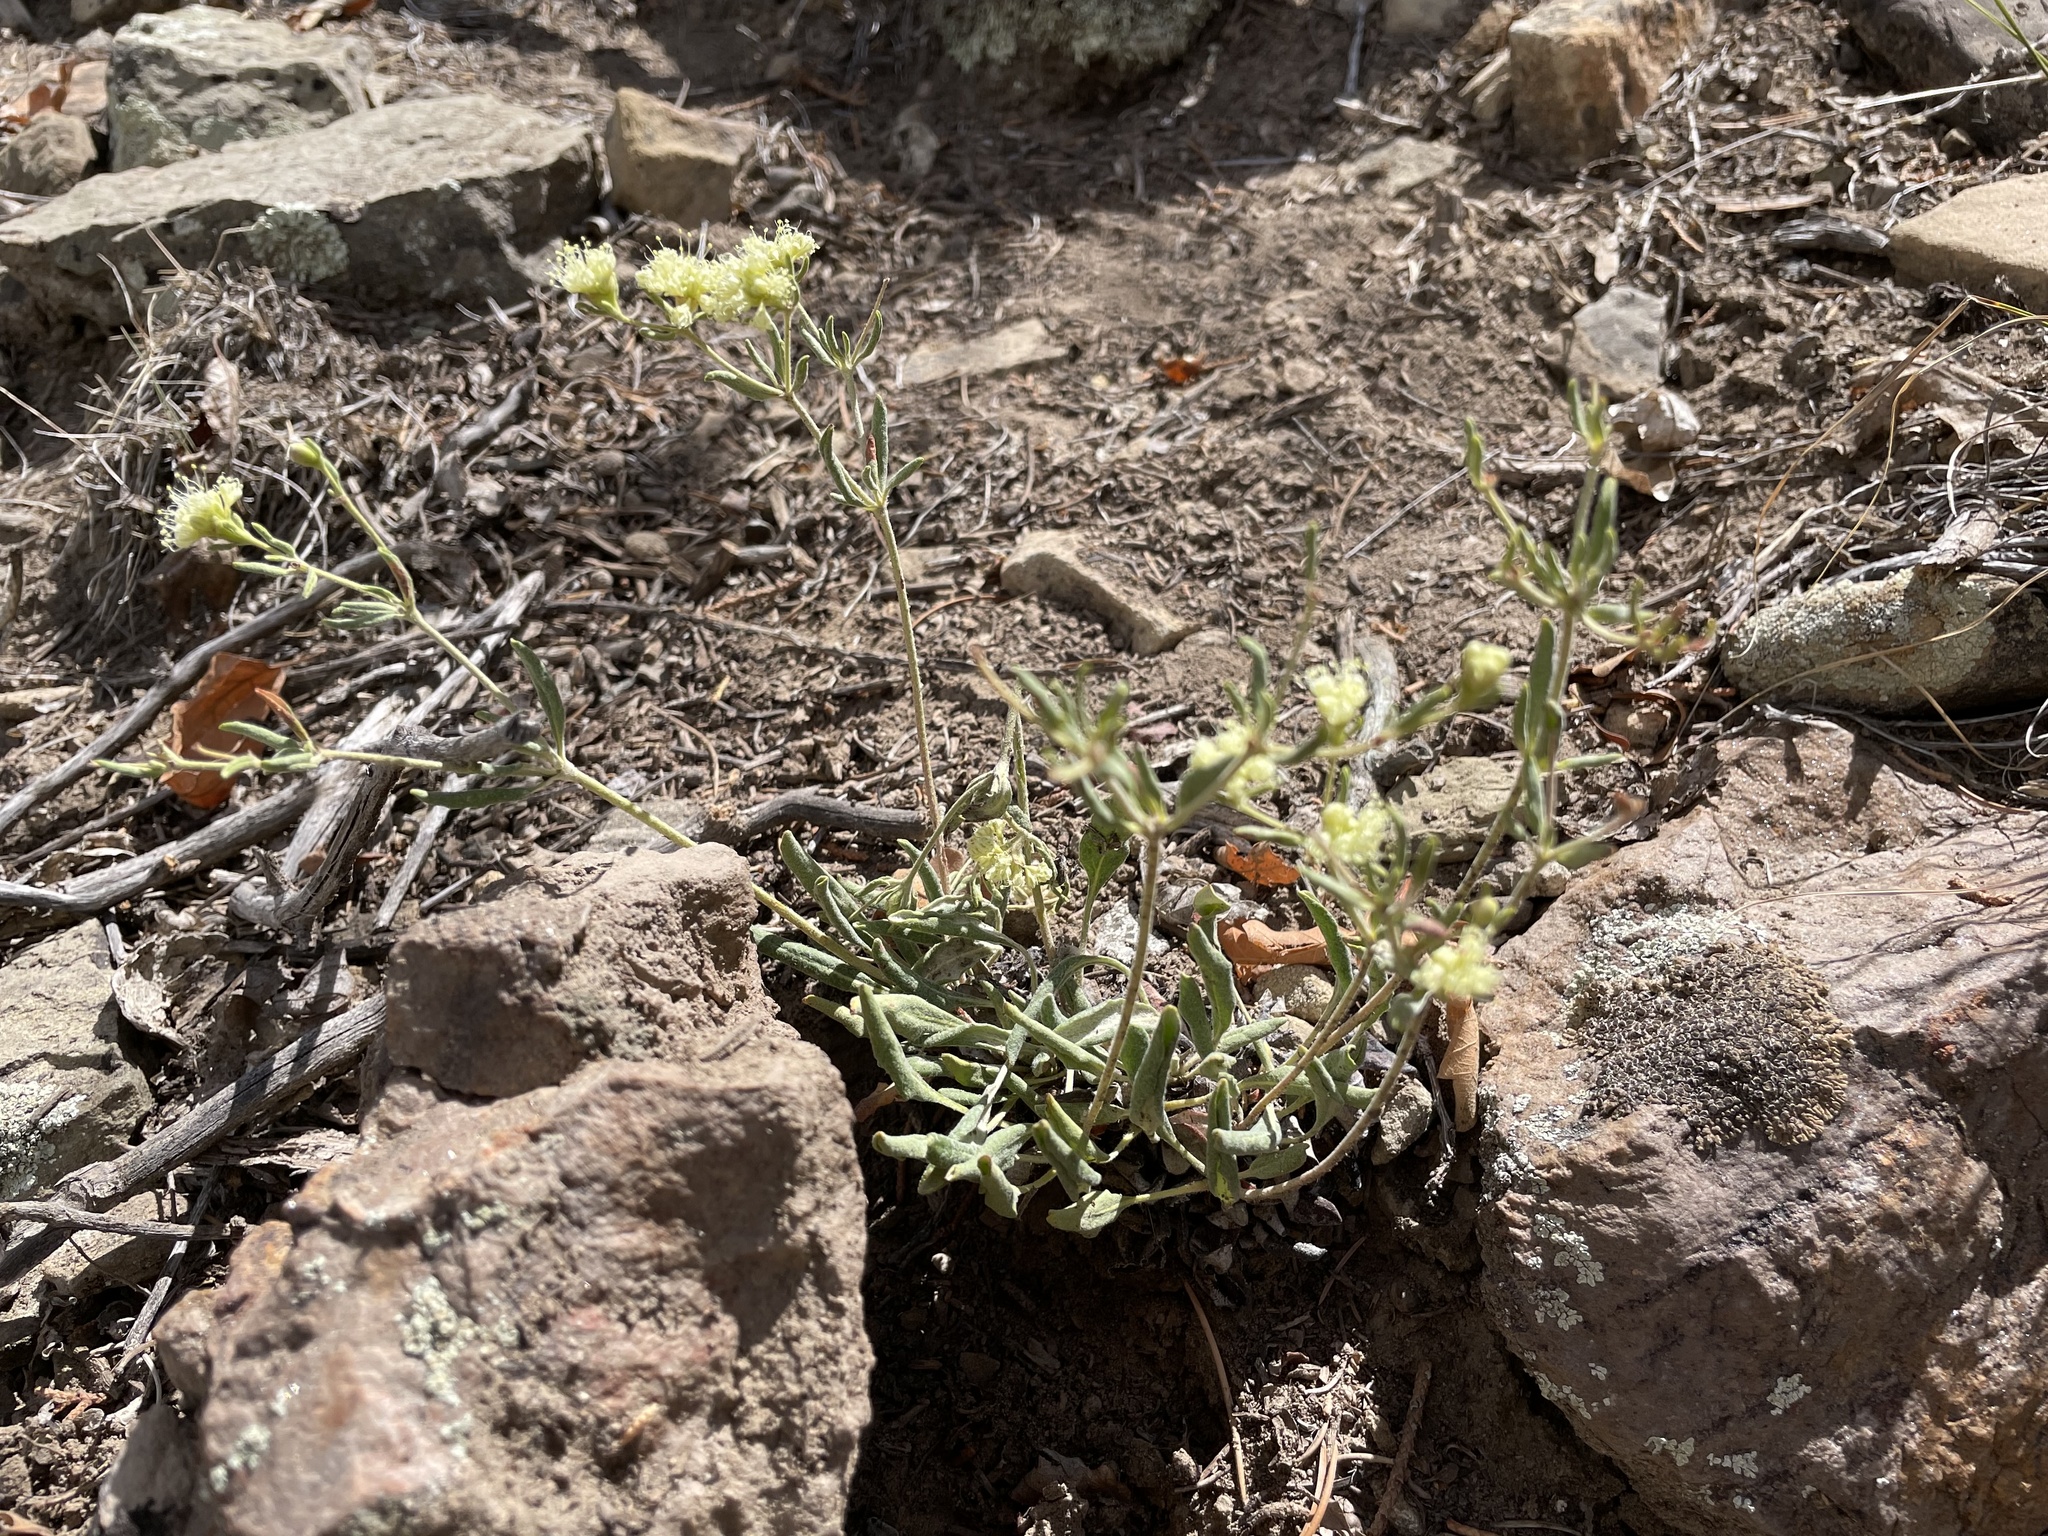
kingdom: Plantae
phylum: Tracheophyta
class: Magnoliopsida
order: Caryophyllales
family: Polygonaceae
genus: Eriogonum
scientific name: Eriogonum jamesii
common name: Antelope-sage
